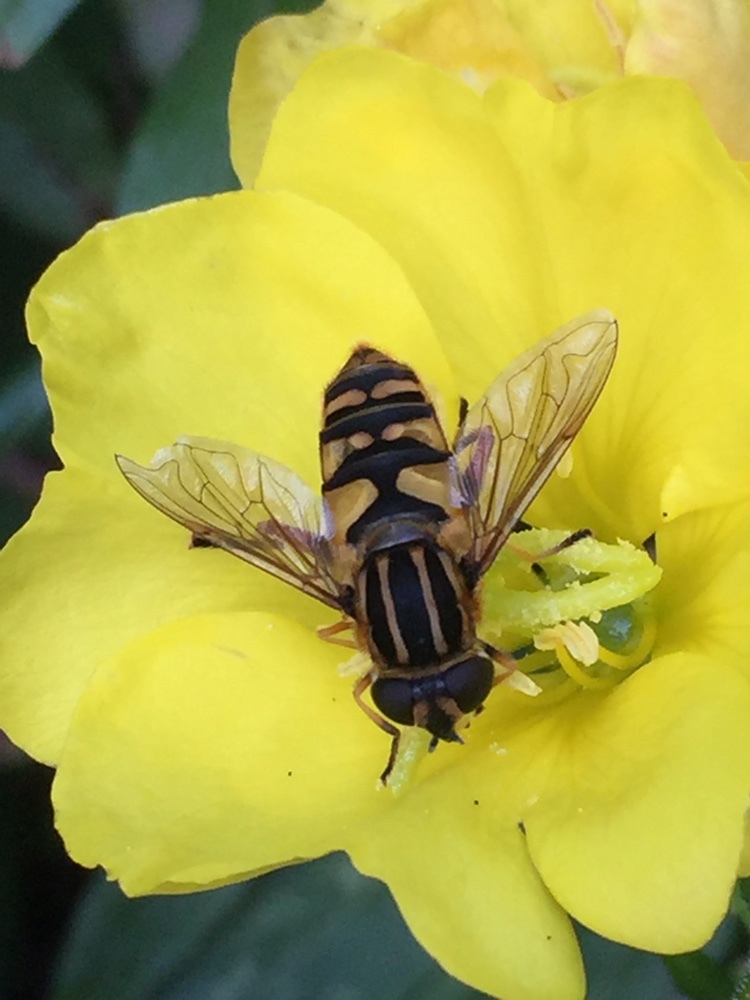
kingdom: Animalia
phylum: Arthropoda
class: Insecta
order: Diptera
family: Syrphidae
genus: Helophilus
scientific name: Helophilus pendulus
